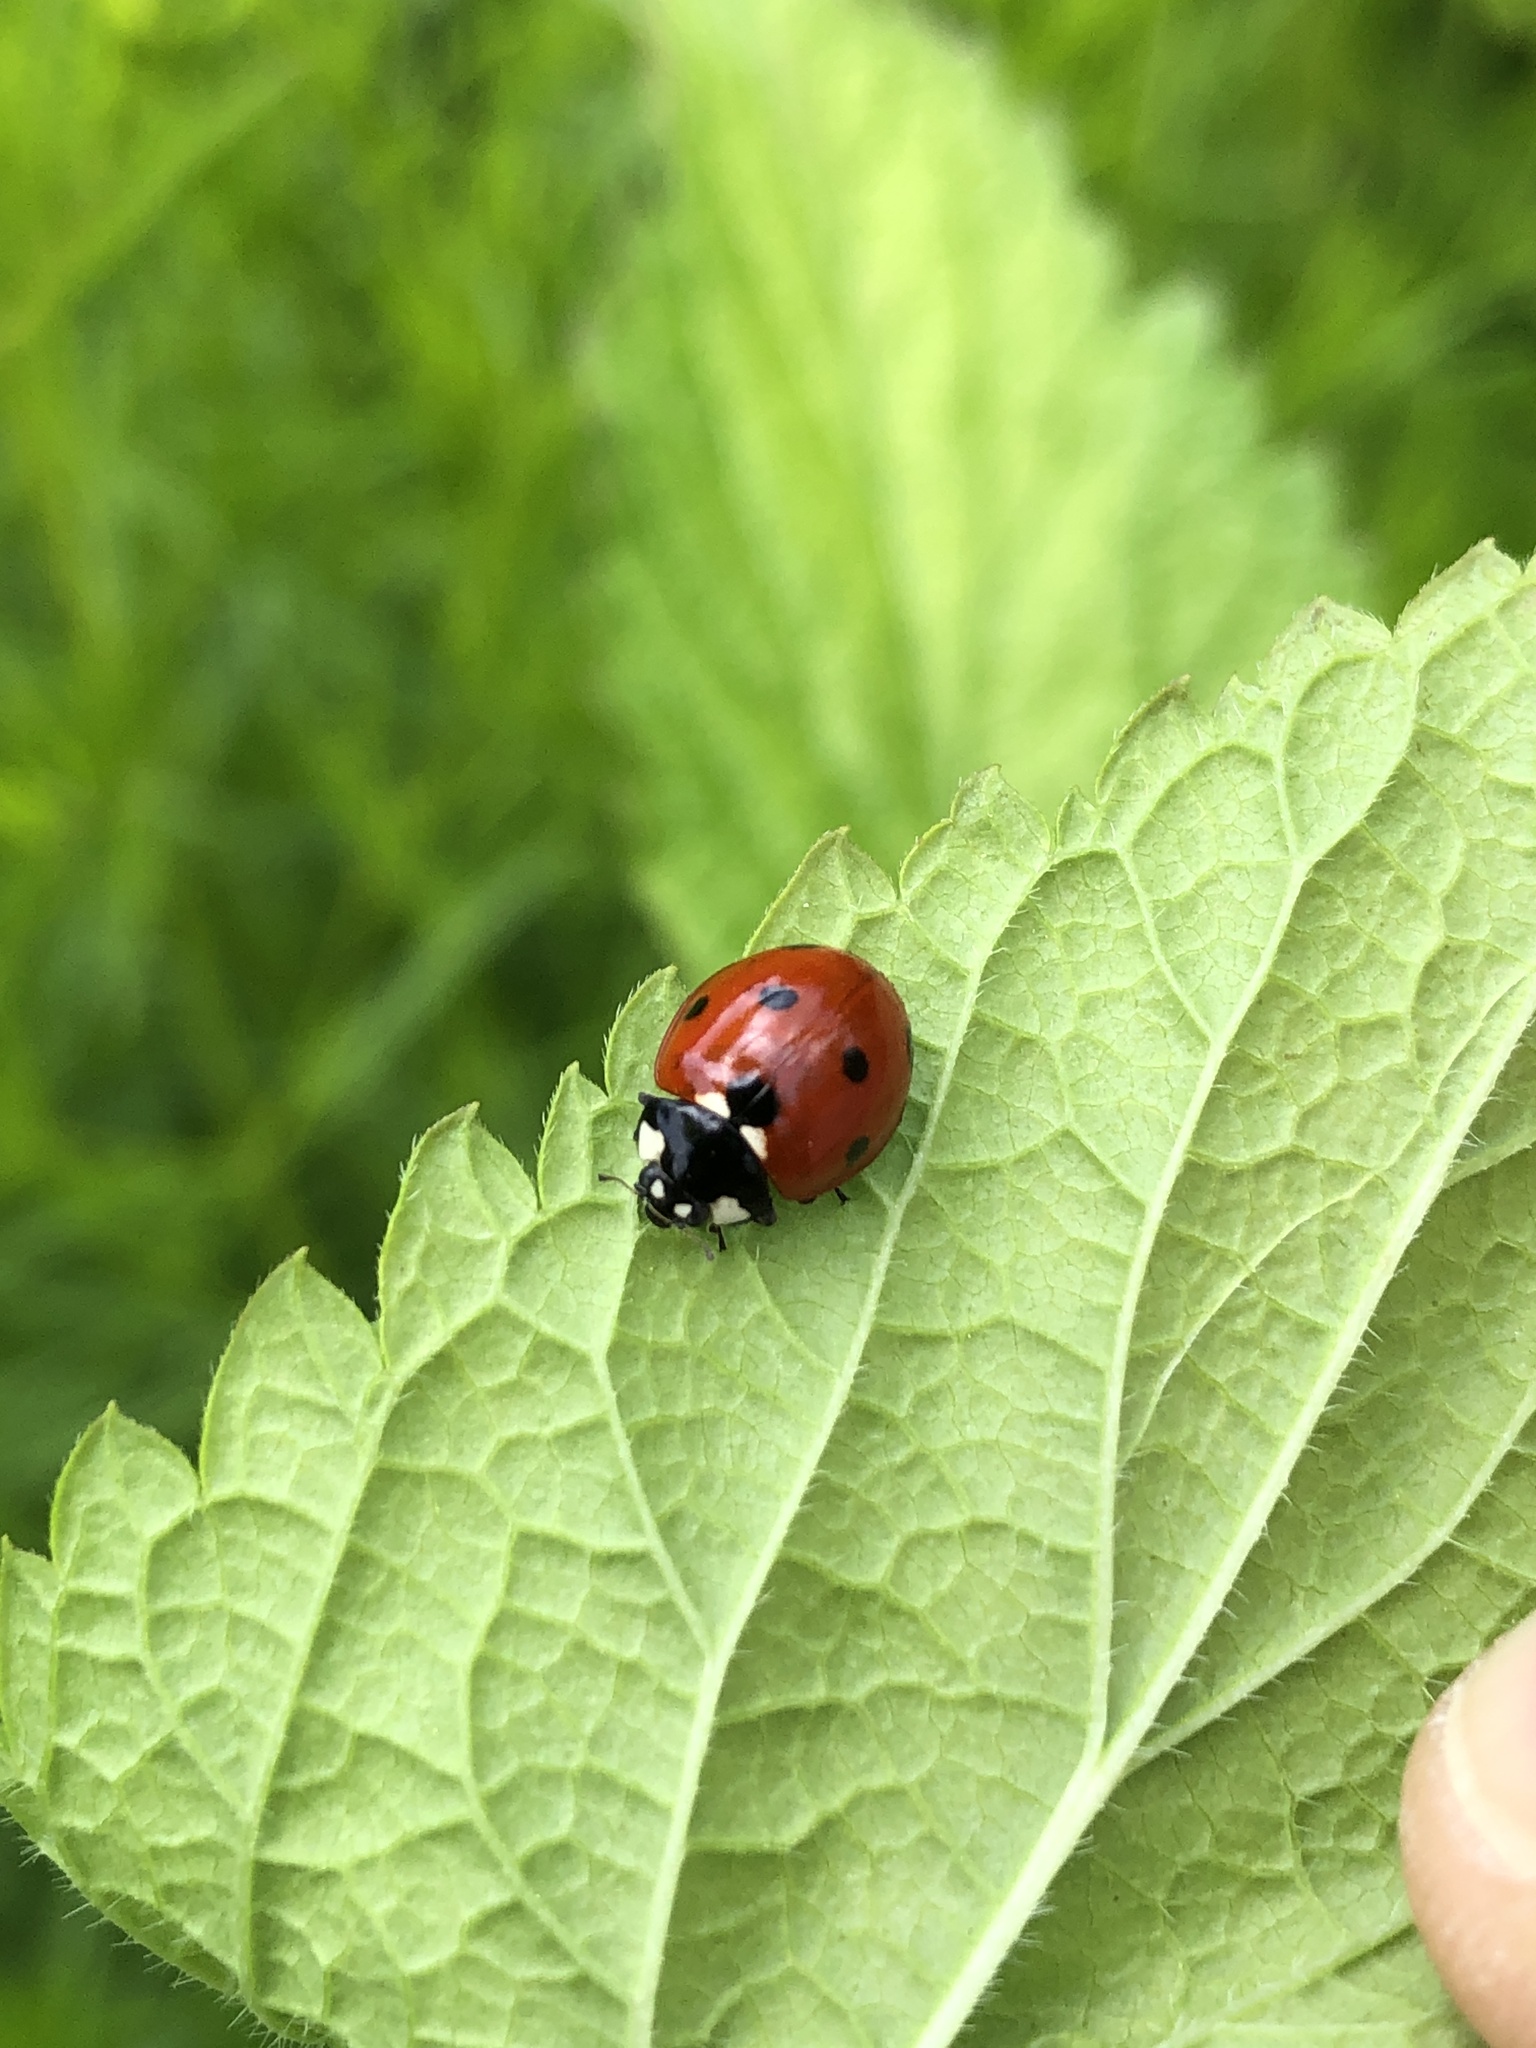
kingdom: Animalia
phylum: Arthropoda
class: Insecta
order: Coleoptera
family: Coccinellidae
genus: Coccinella
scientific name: Coccinella septempunctata
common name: Sevenspotted lady beetle
